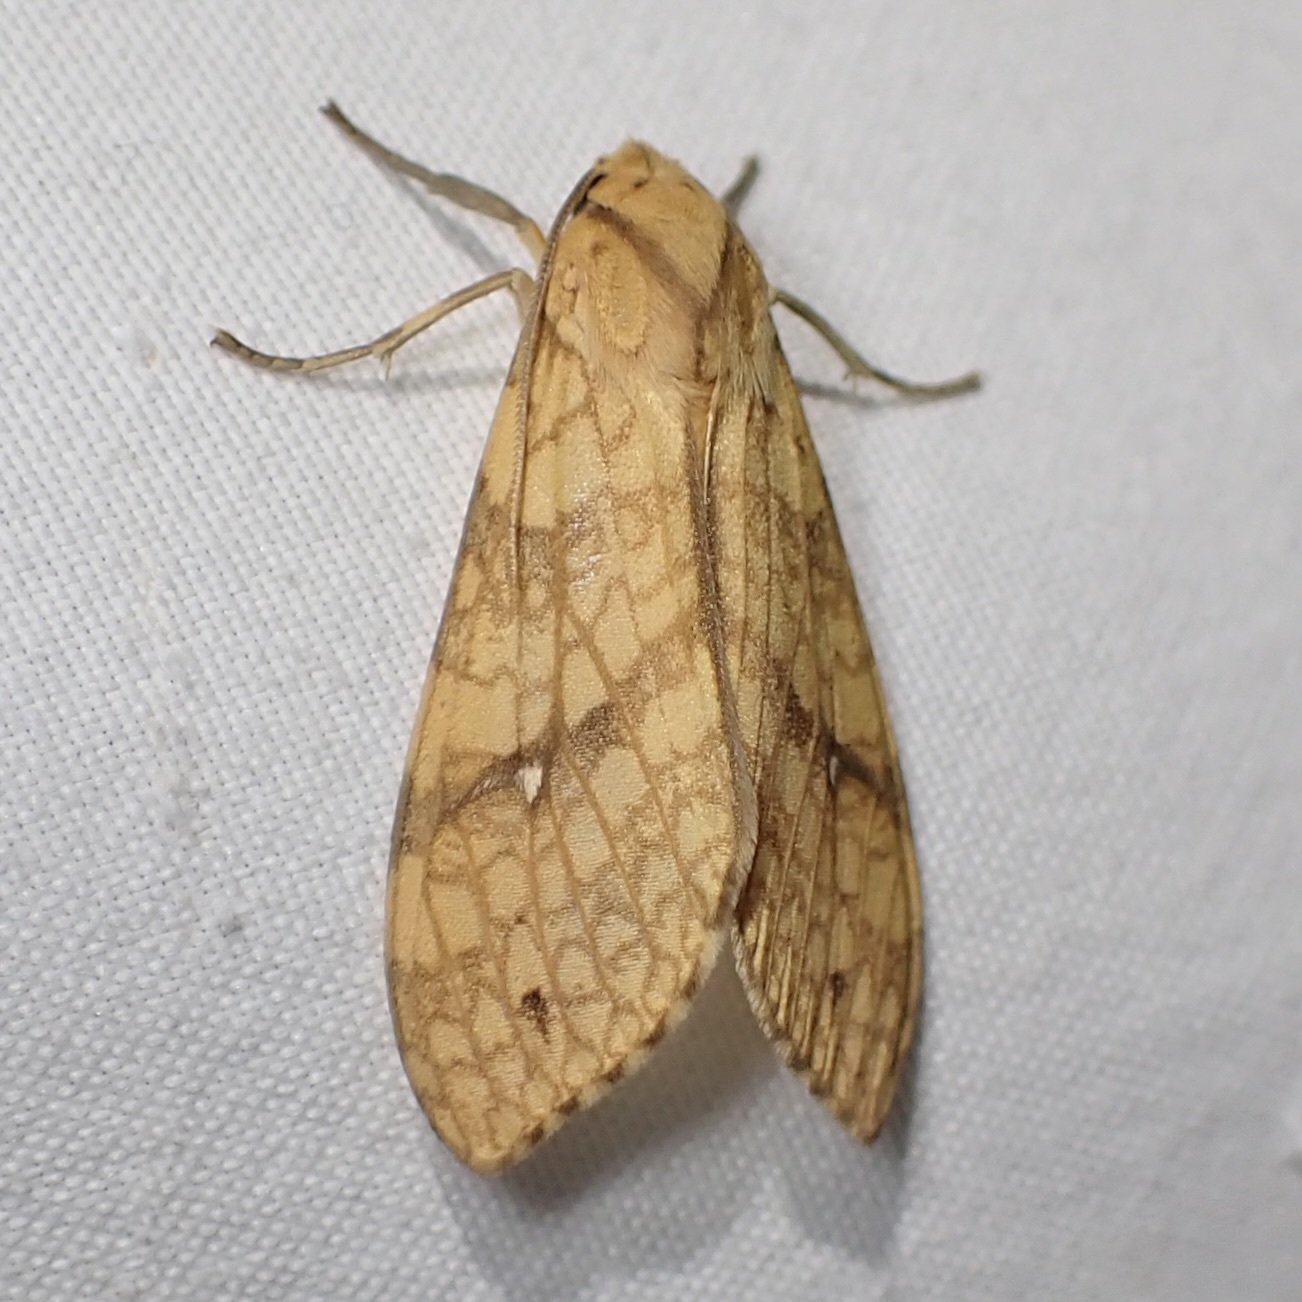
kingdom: Animalia
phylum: Arthropoda
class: Insecta
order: Lepidoptera
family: Erebidae
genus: Lophocampa
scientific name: Lophocampa annulosa
